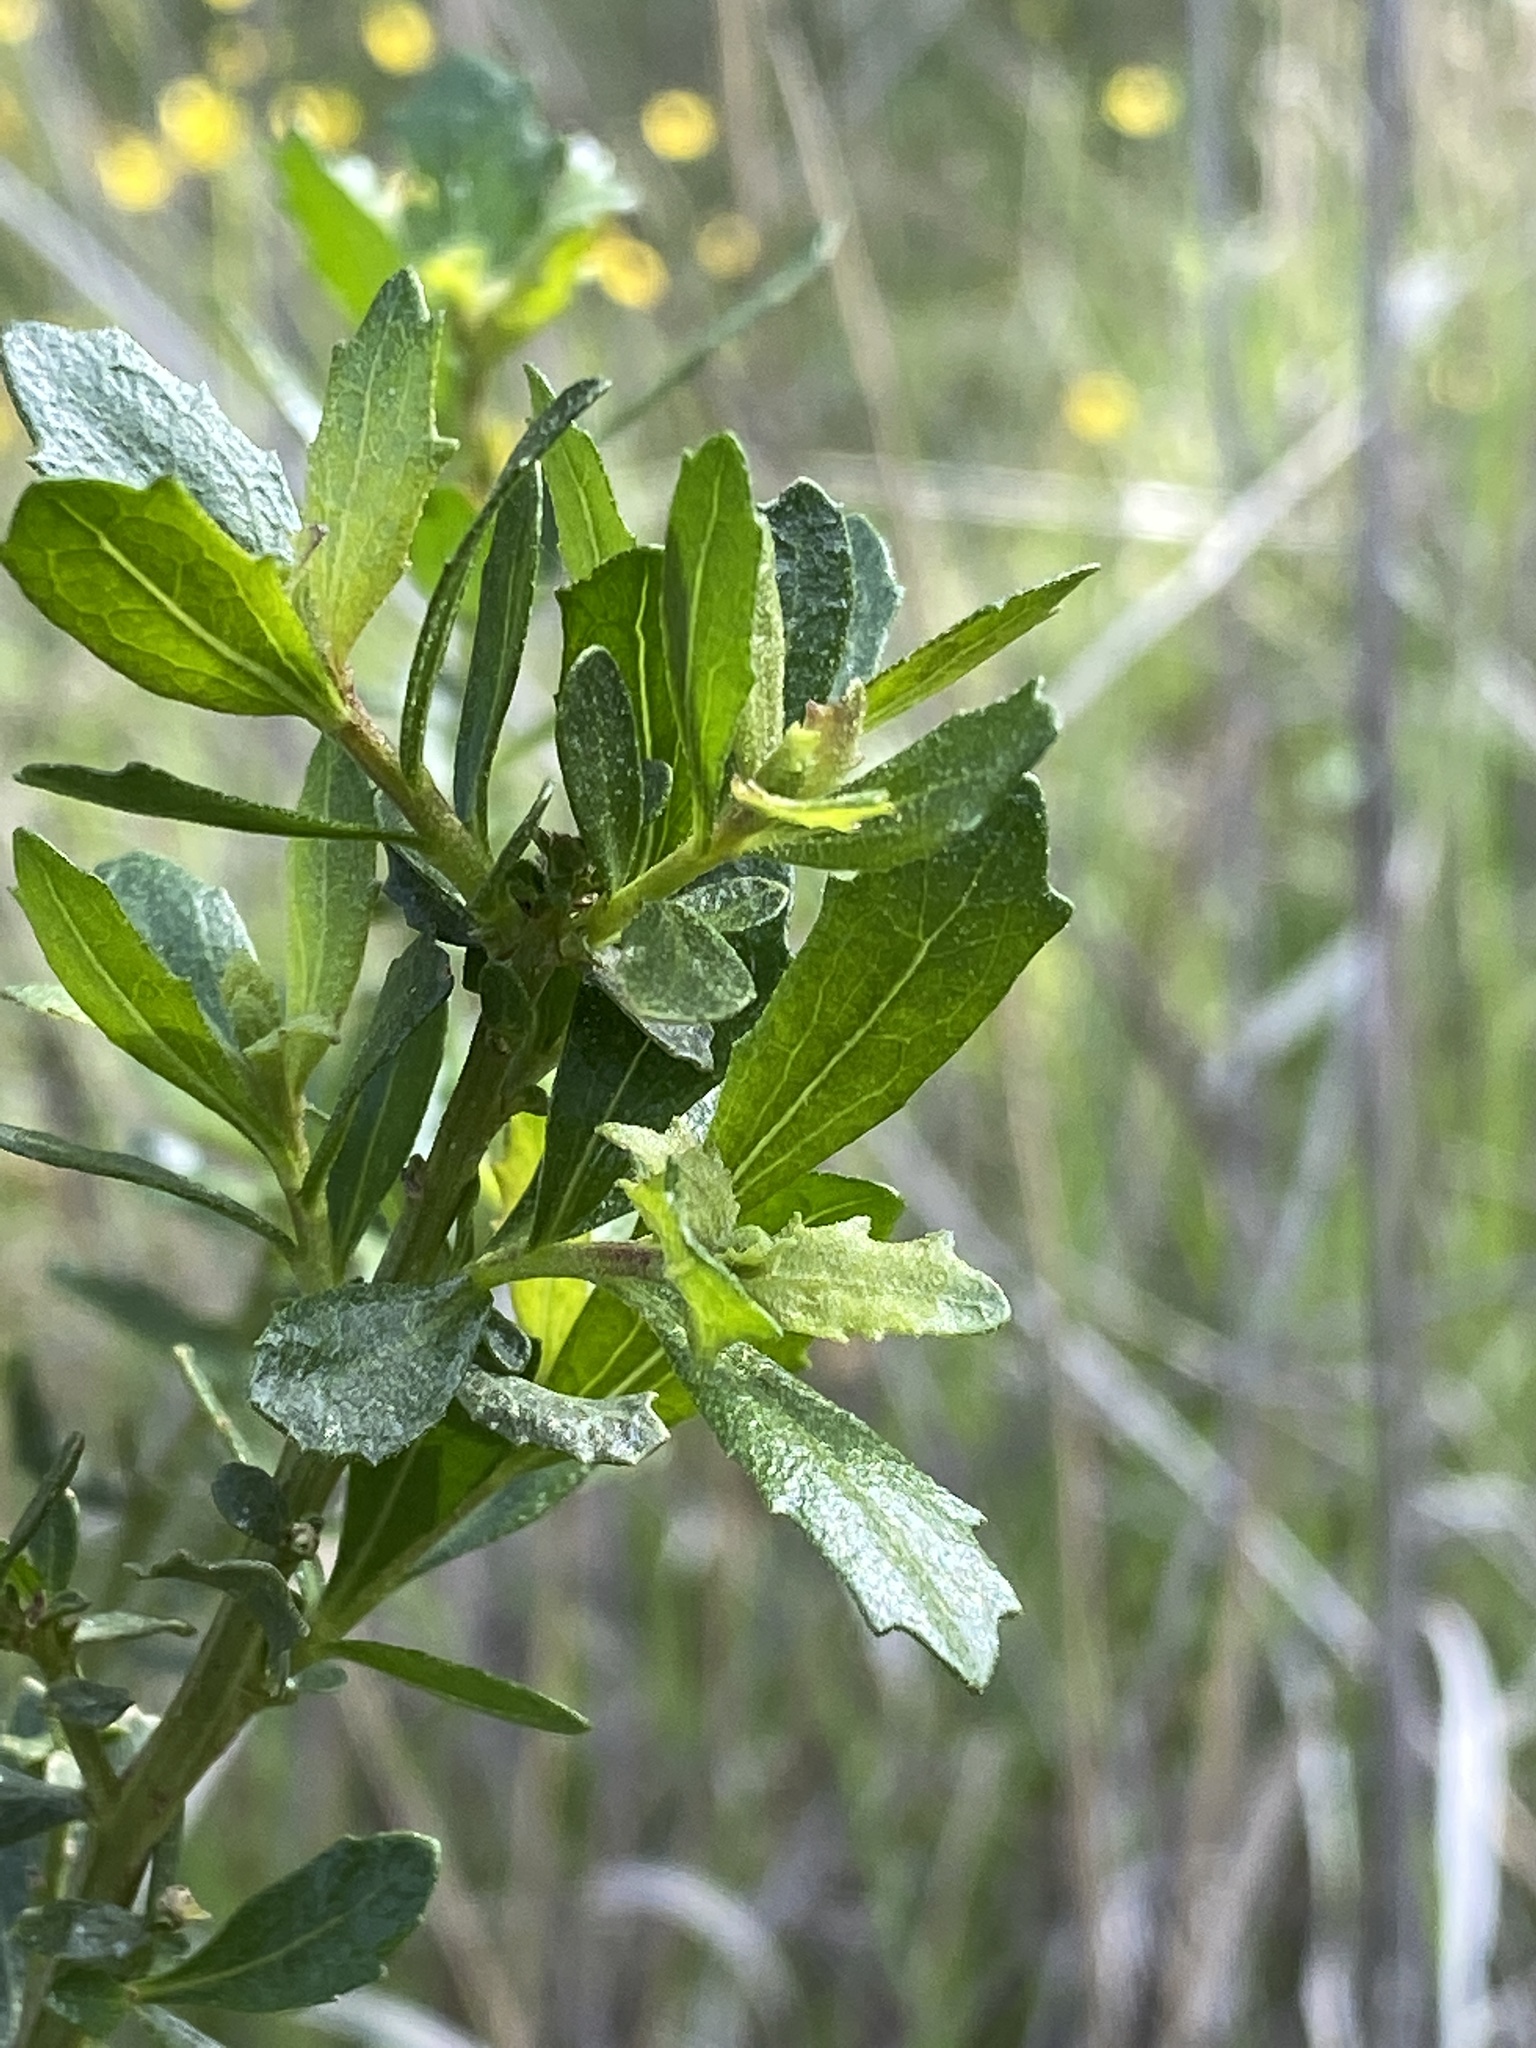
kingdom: Plantae
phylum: Tracheophyta
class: Magnoliopsida
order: Asterales
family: Asteraceae
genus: Baccharis
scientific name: Baccharis pilularis
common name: Coyotebrush
